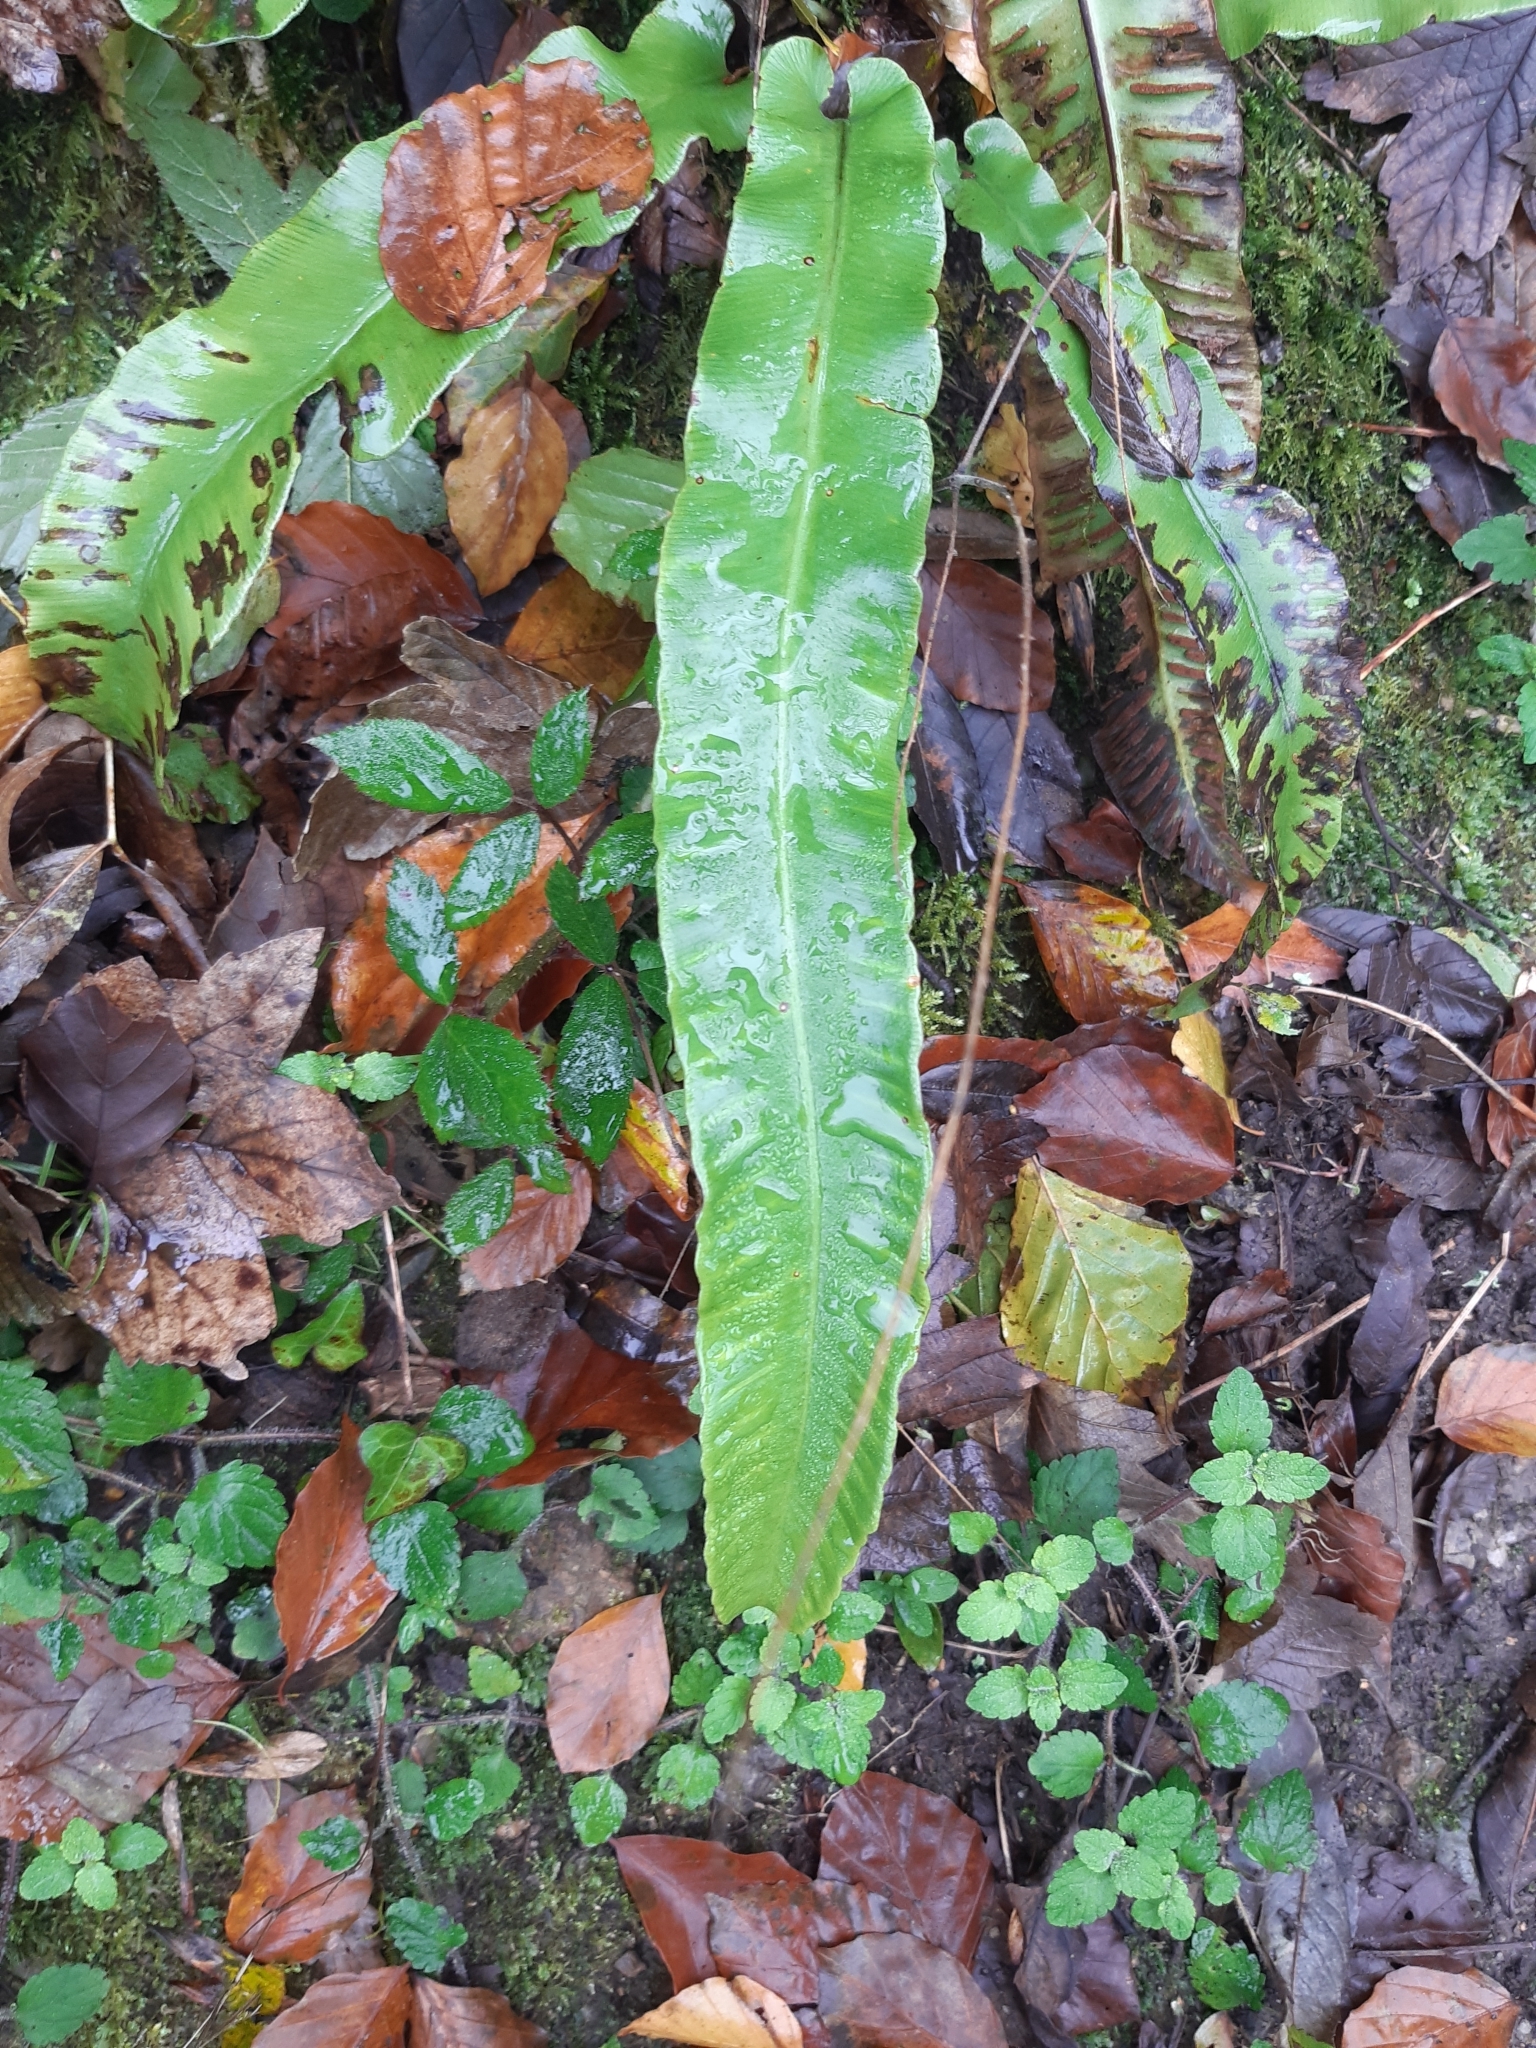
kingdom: Plantae
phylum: Tracheophyta
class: Polypodiopsida
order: Polypodiales
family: Aspleniaceae
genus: Asplenium
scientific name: Asplenium scolopendrium
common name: Hart's-tongue fern
